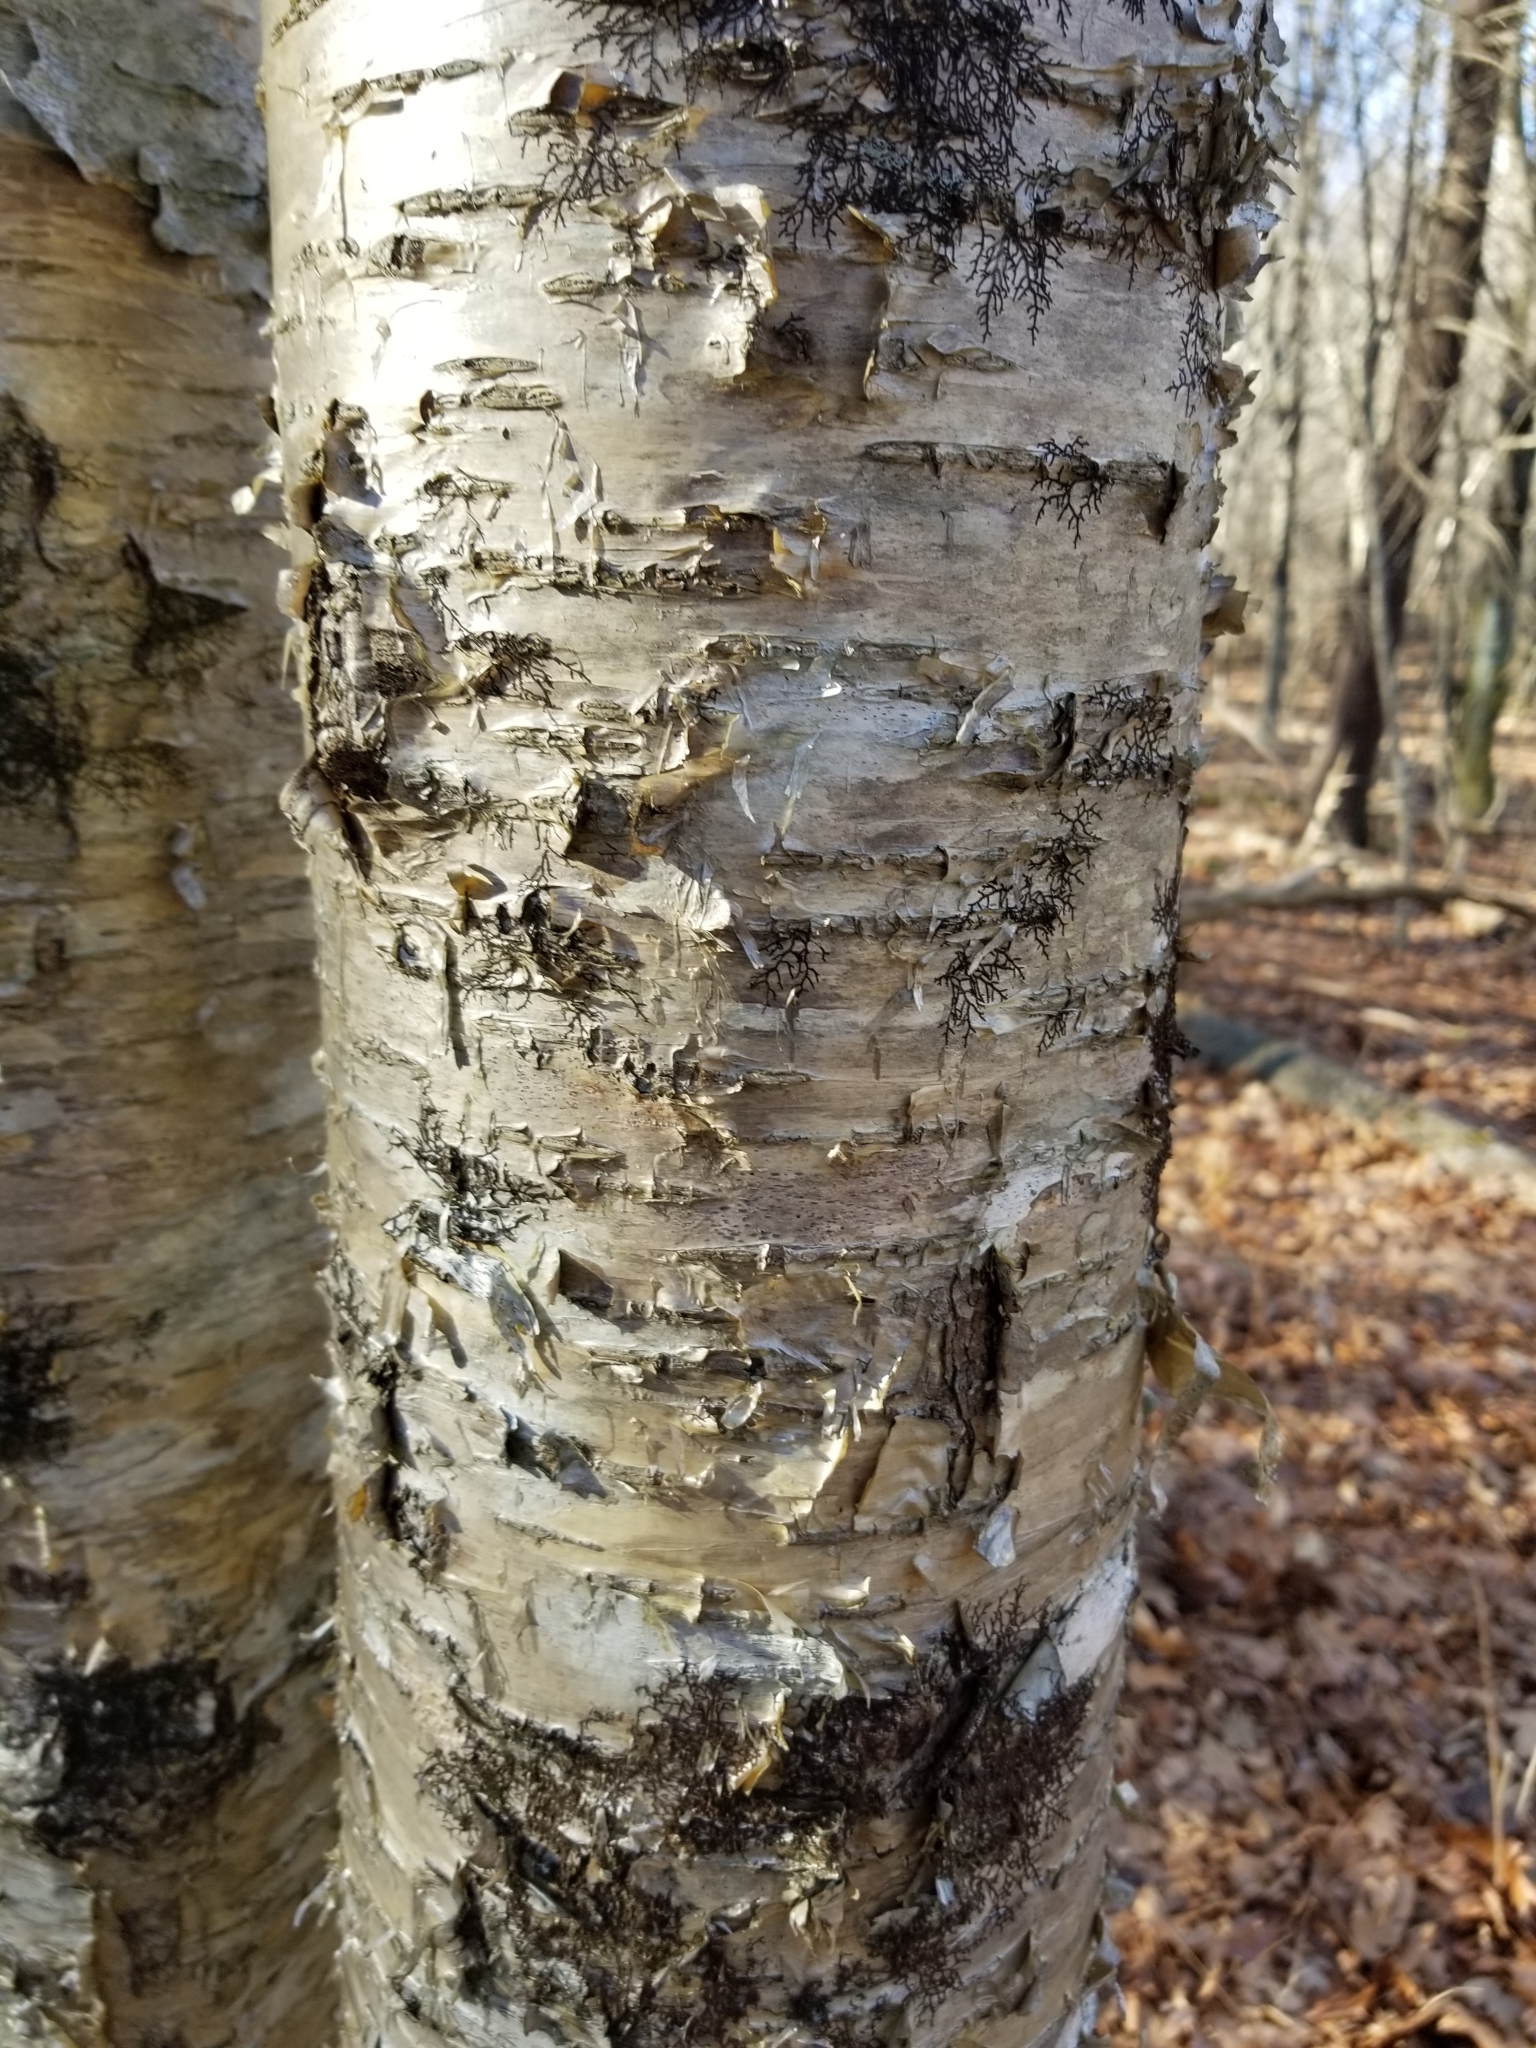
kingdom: Plantae
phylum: Tracheophyta
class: Magnoliopsida
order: Fagales
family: Betulaceae
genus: Betula
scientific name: Betula alleghaniensis
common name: Yellow birch
